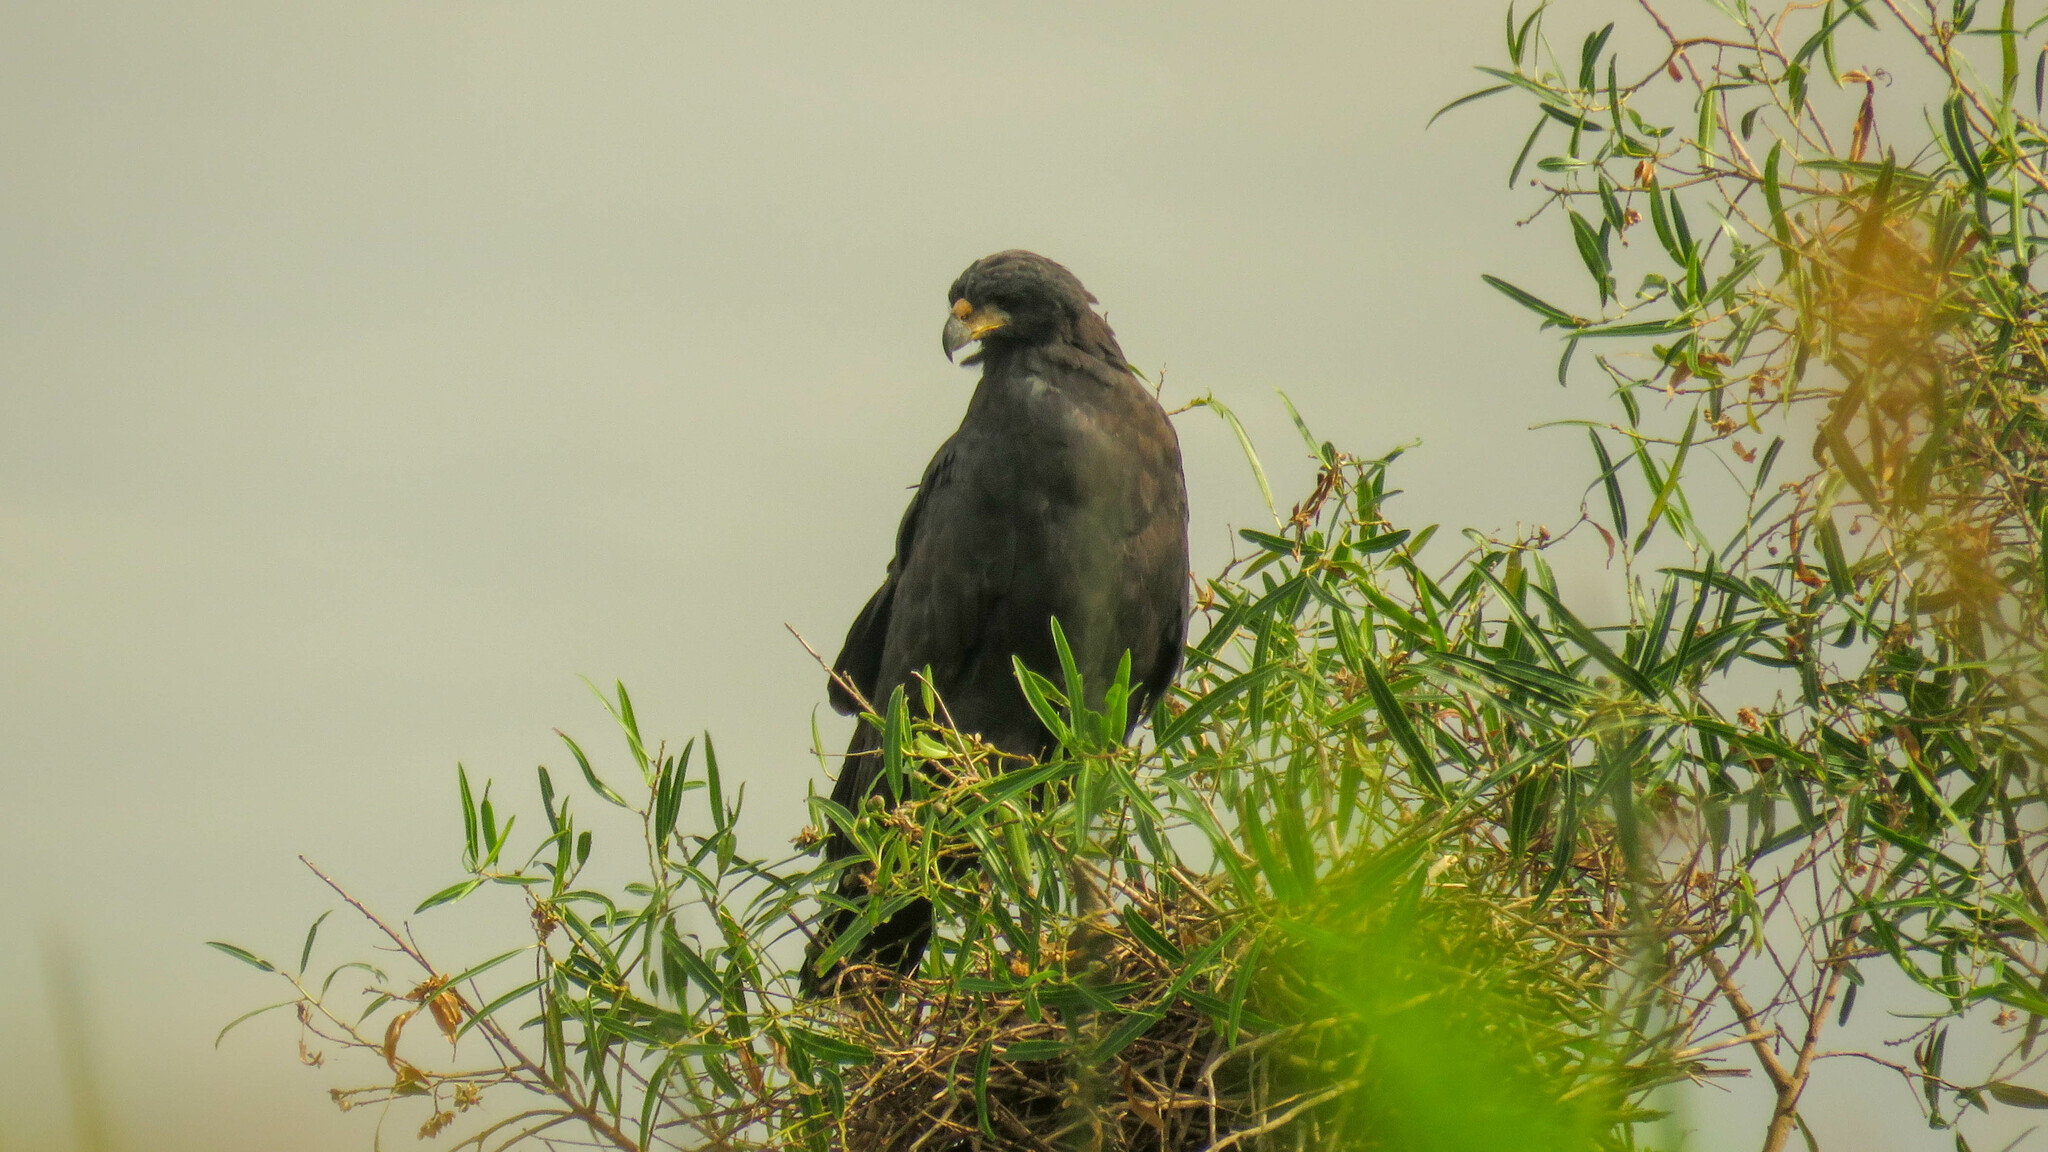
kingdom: Animalia
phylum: Chordata
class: Aves
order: Accipitriformes
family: Accipitridae
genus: Buteogallus
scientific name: Buteogallus urubitinga
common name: Great black hawk
